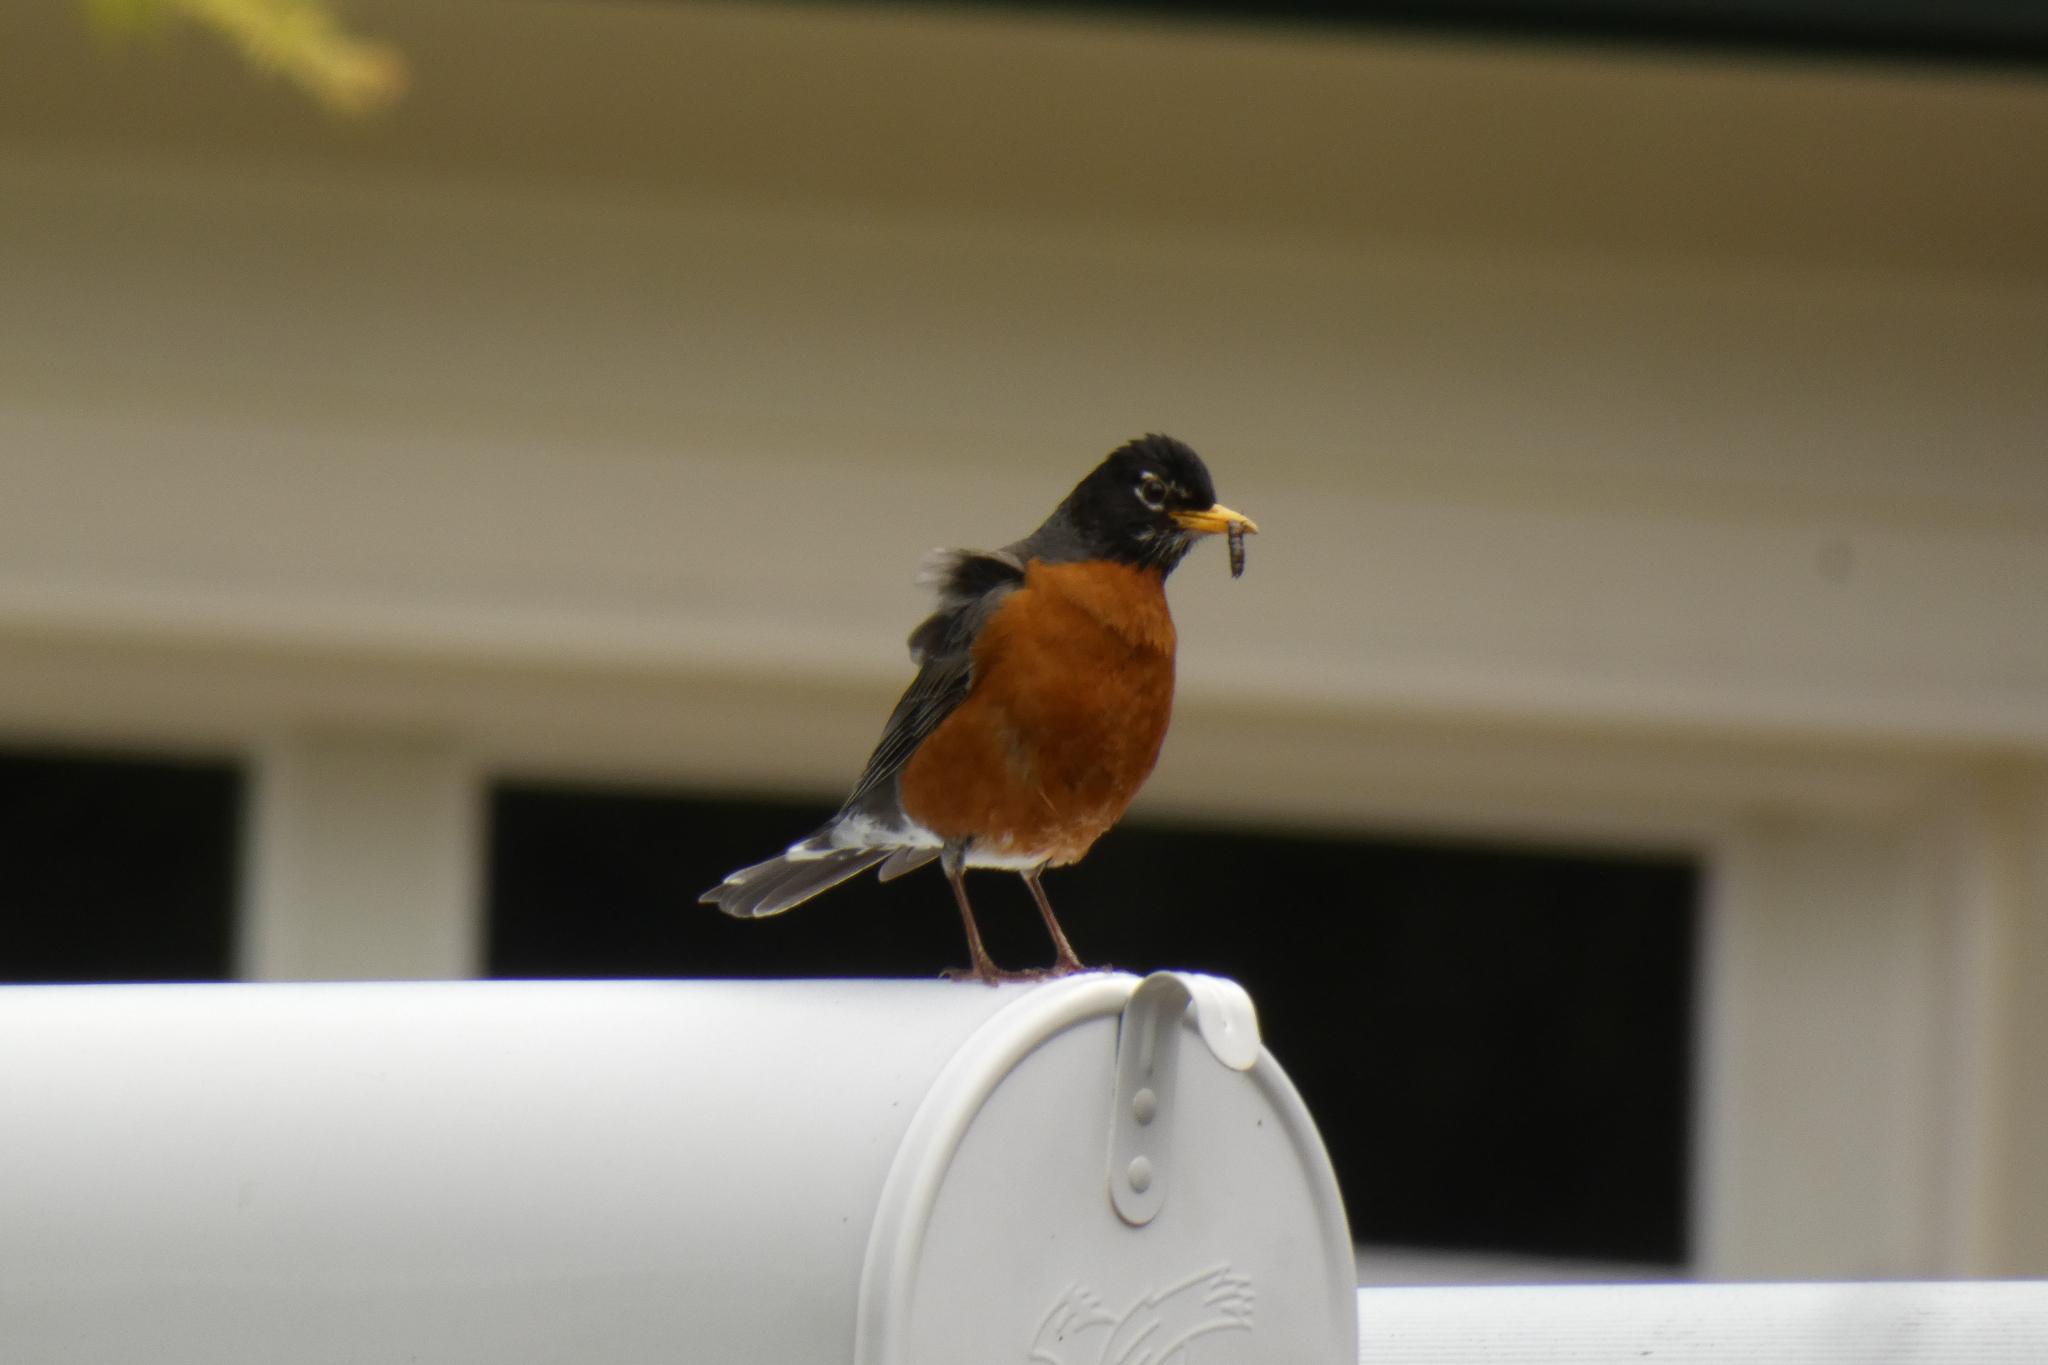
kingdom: Animalia
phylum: Chordata
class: Aves
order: Passeriformes
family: Turdidae
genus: Turdus
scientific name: Turdus migratorius
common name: American robin
